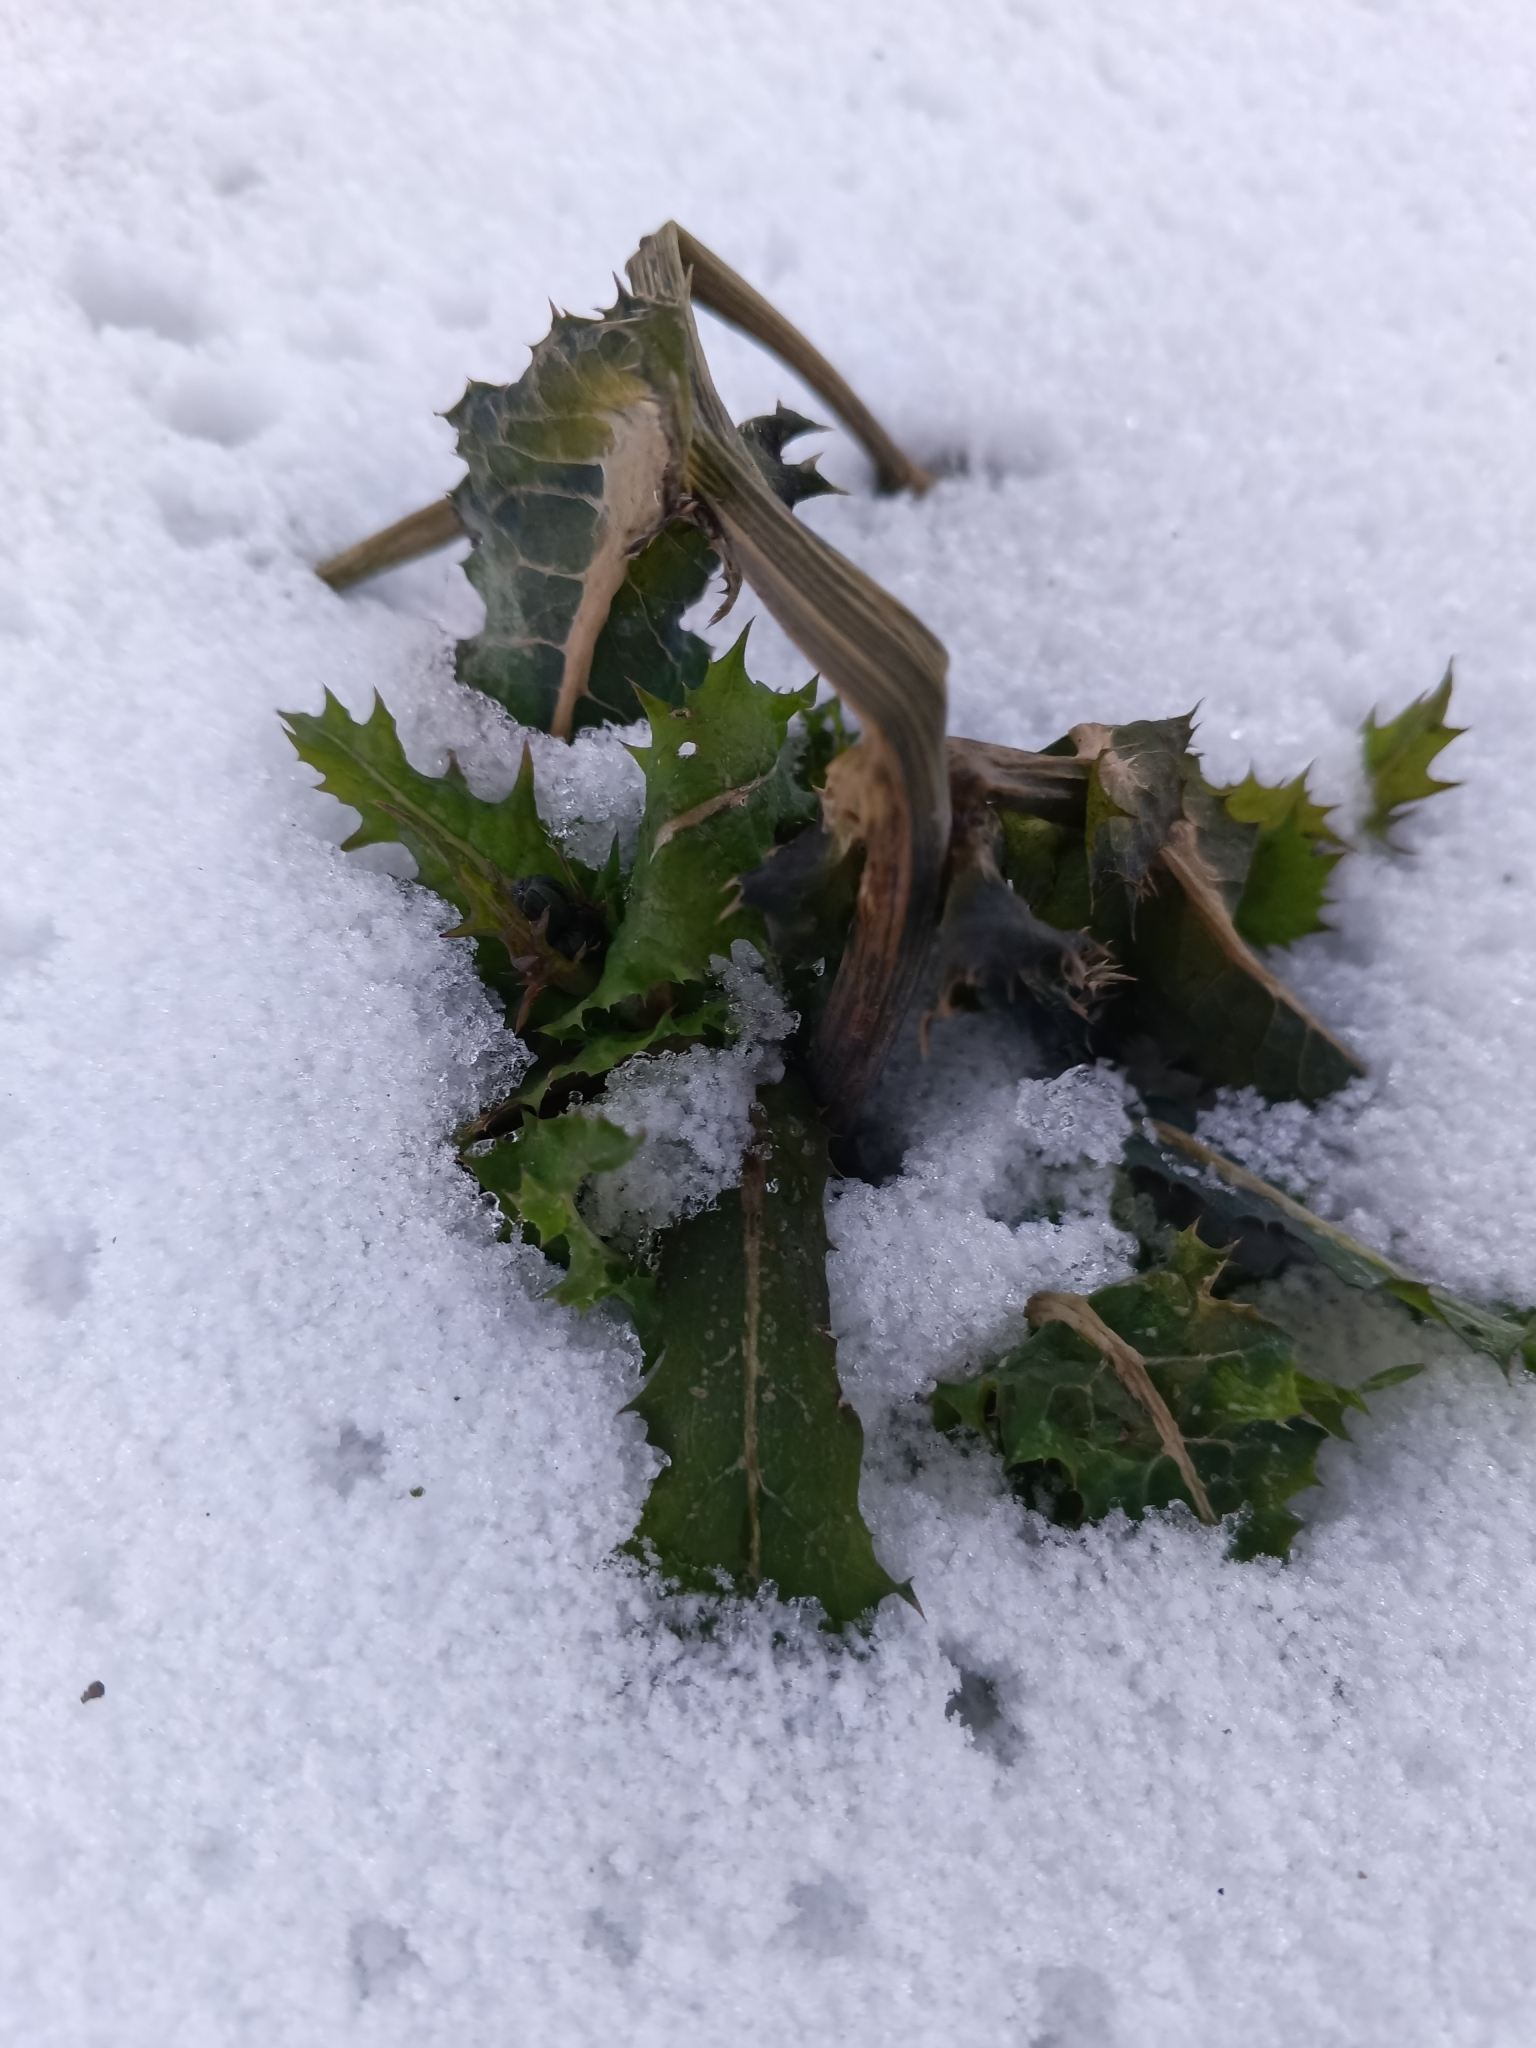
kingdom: Plantae
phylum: Tracheophyta
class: Magnoliopsida
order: Asterales
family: Asteraceae
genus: Sonchus
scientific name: Sonchus asper
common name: Prickly sow-thistle
